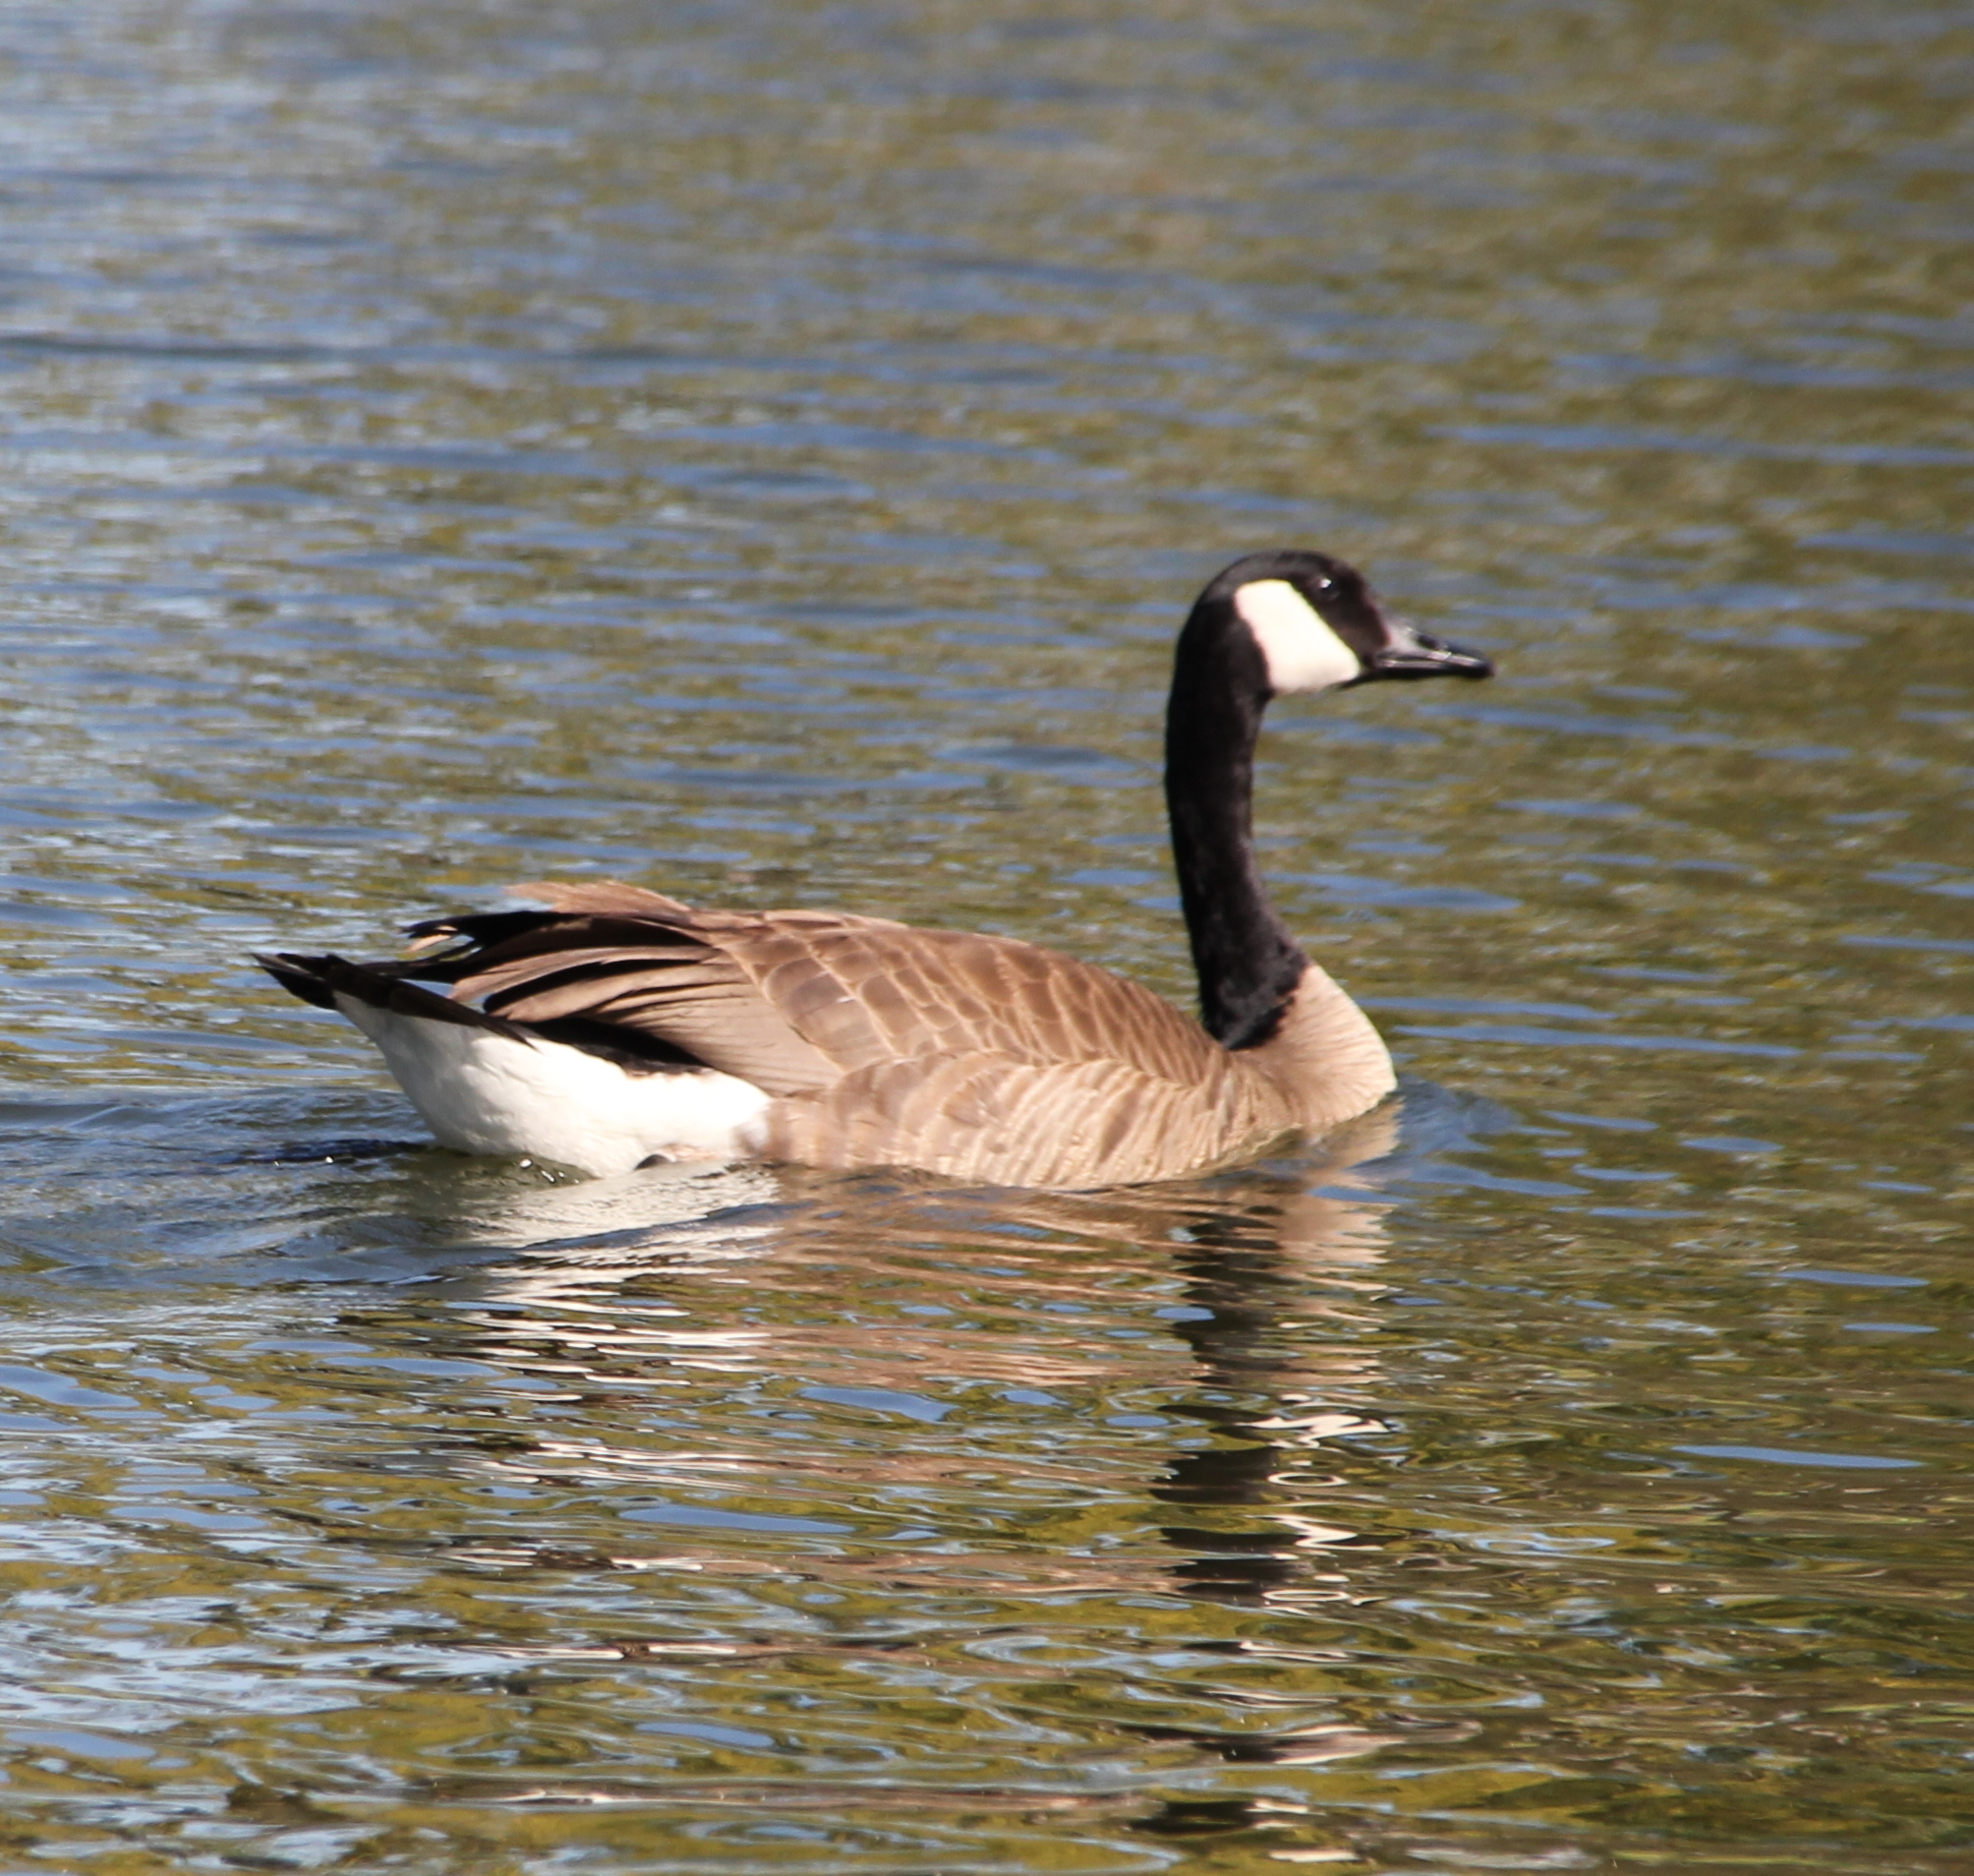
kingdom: Animalia
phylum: Chordata
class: Aves
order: Anseriformes
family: Anatidae
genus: Branta
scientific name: Branta canadensis
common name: Canada goose
